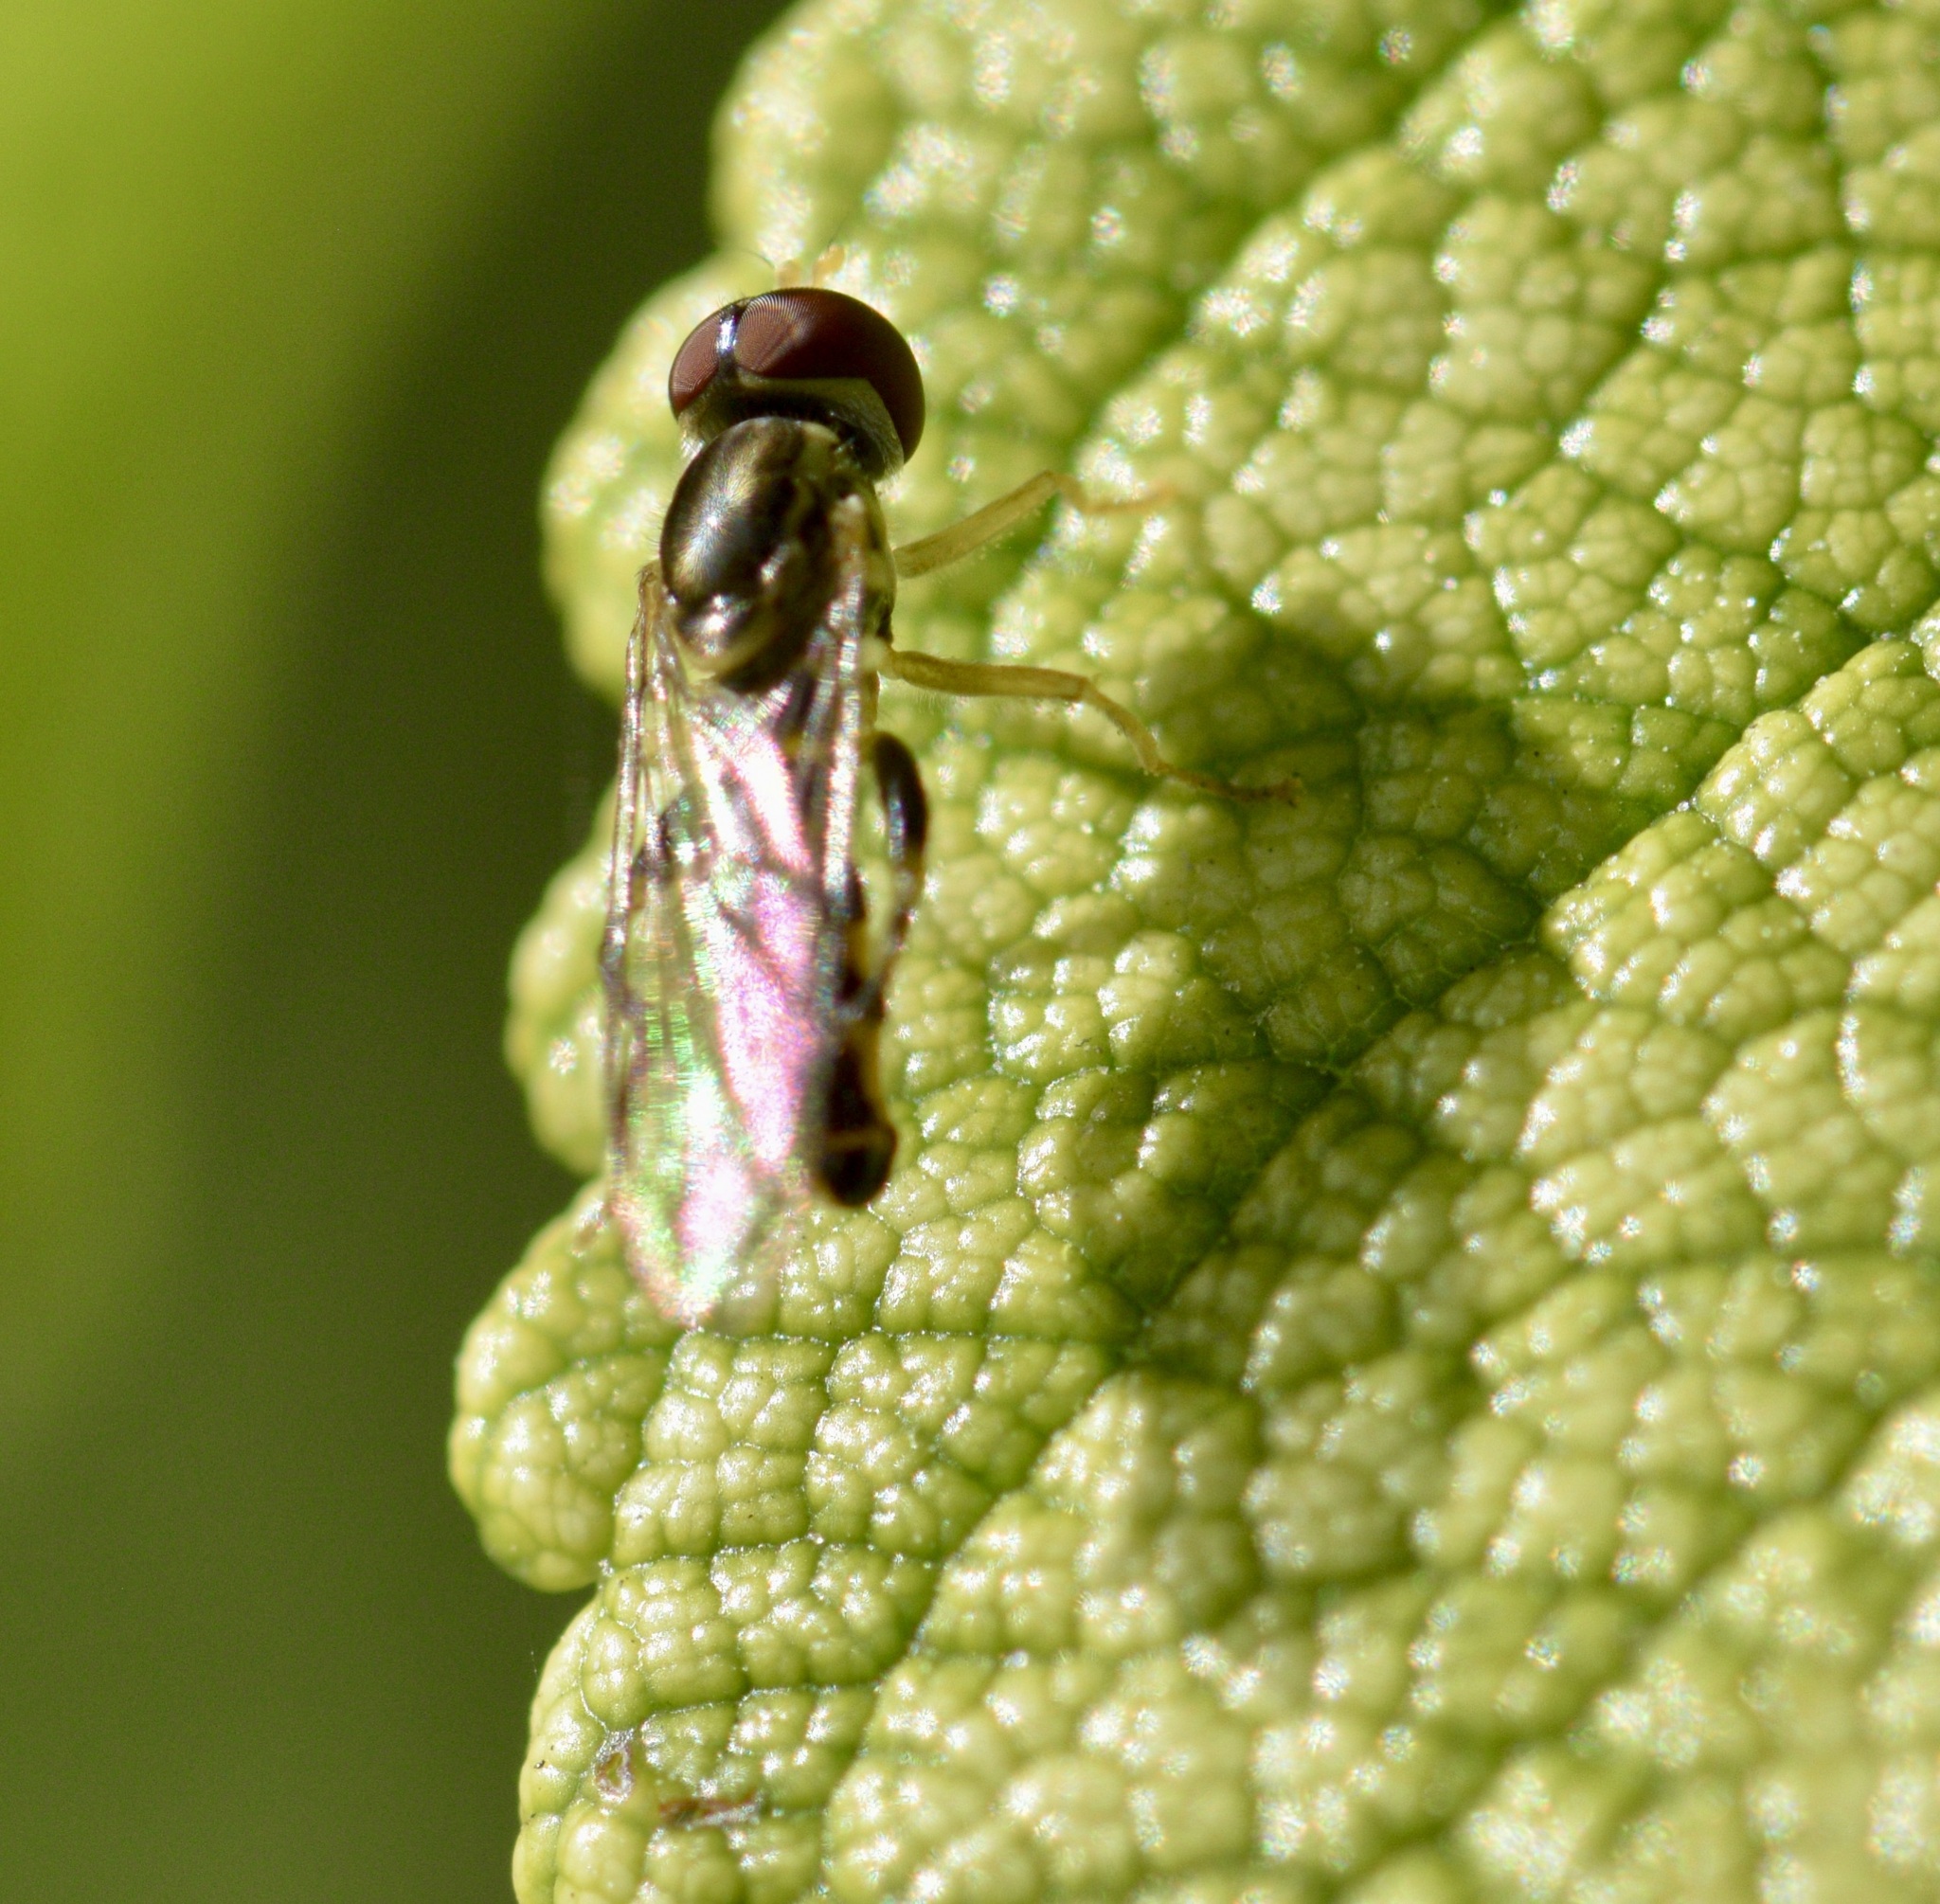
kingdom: Animalia
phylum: Arthropoda
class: Insecta
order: Diptera
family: Syrphidae
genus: Toxomerus
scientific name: Toxomerus geminatus
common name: Eastern calligrapher
